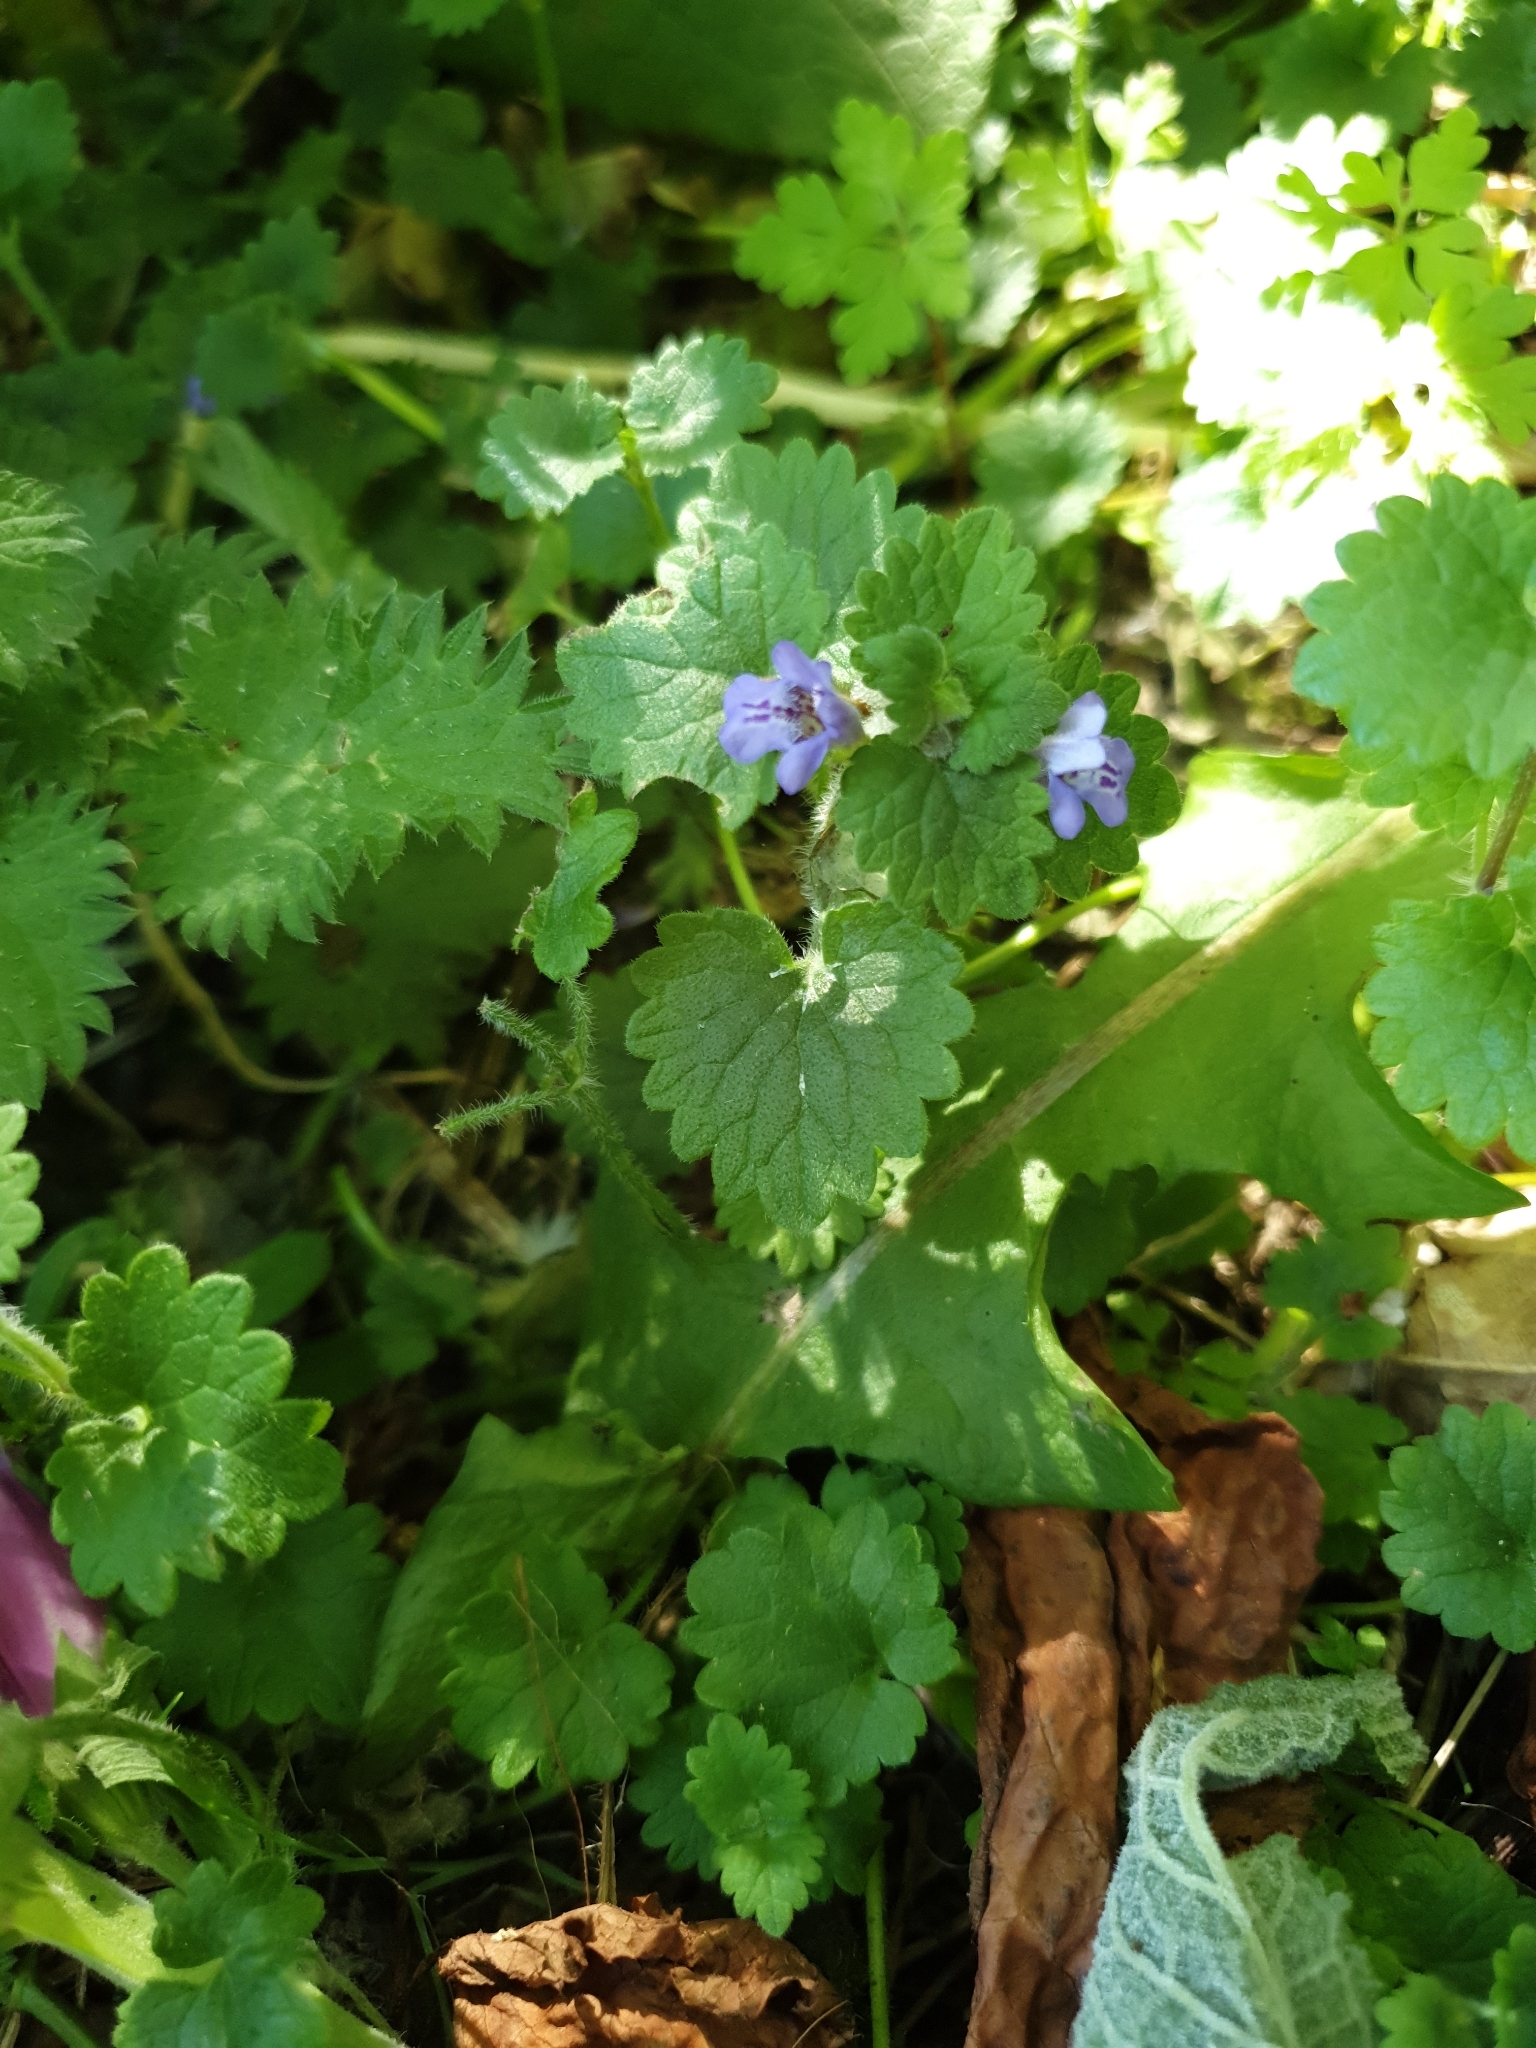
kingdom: Plantae
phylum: Tracheophyta
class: Magnoliopsida
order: Lamiales
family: Lamiaceae
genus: Glechoma
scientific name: Glechoma hederacea
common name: Ground ivy
